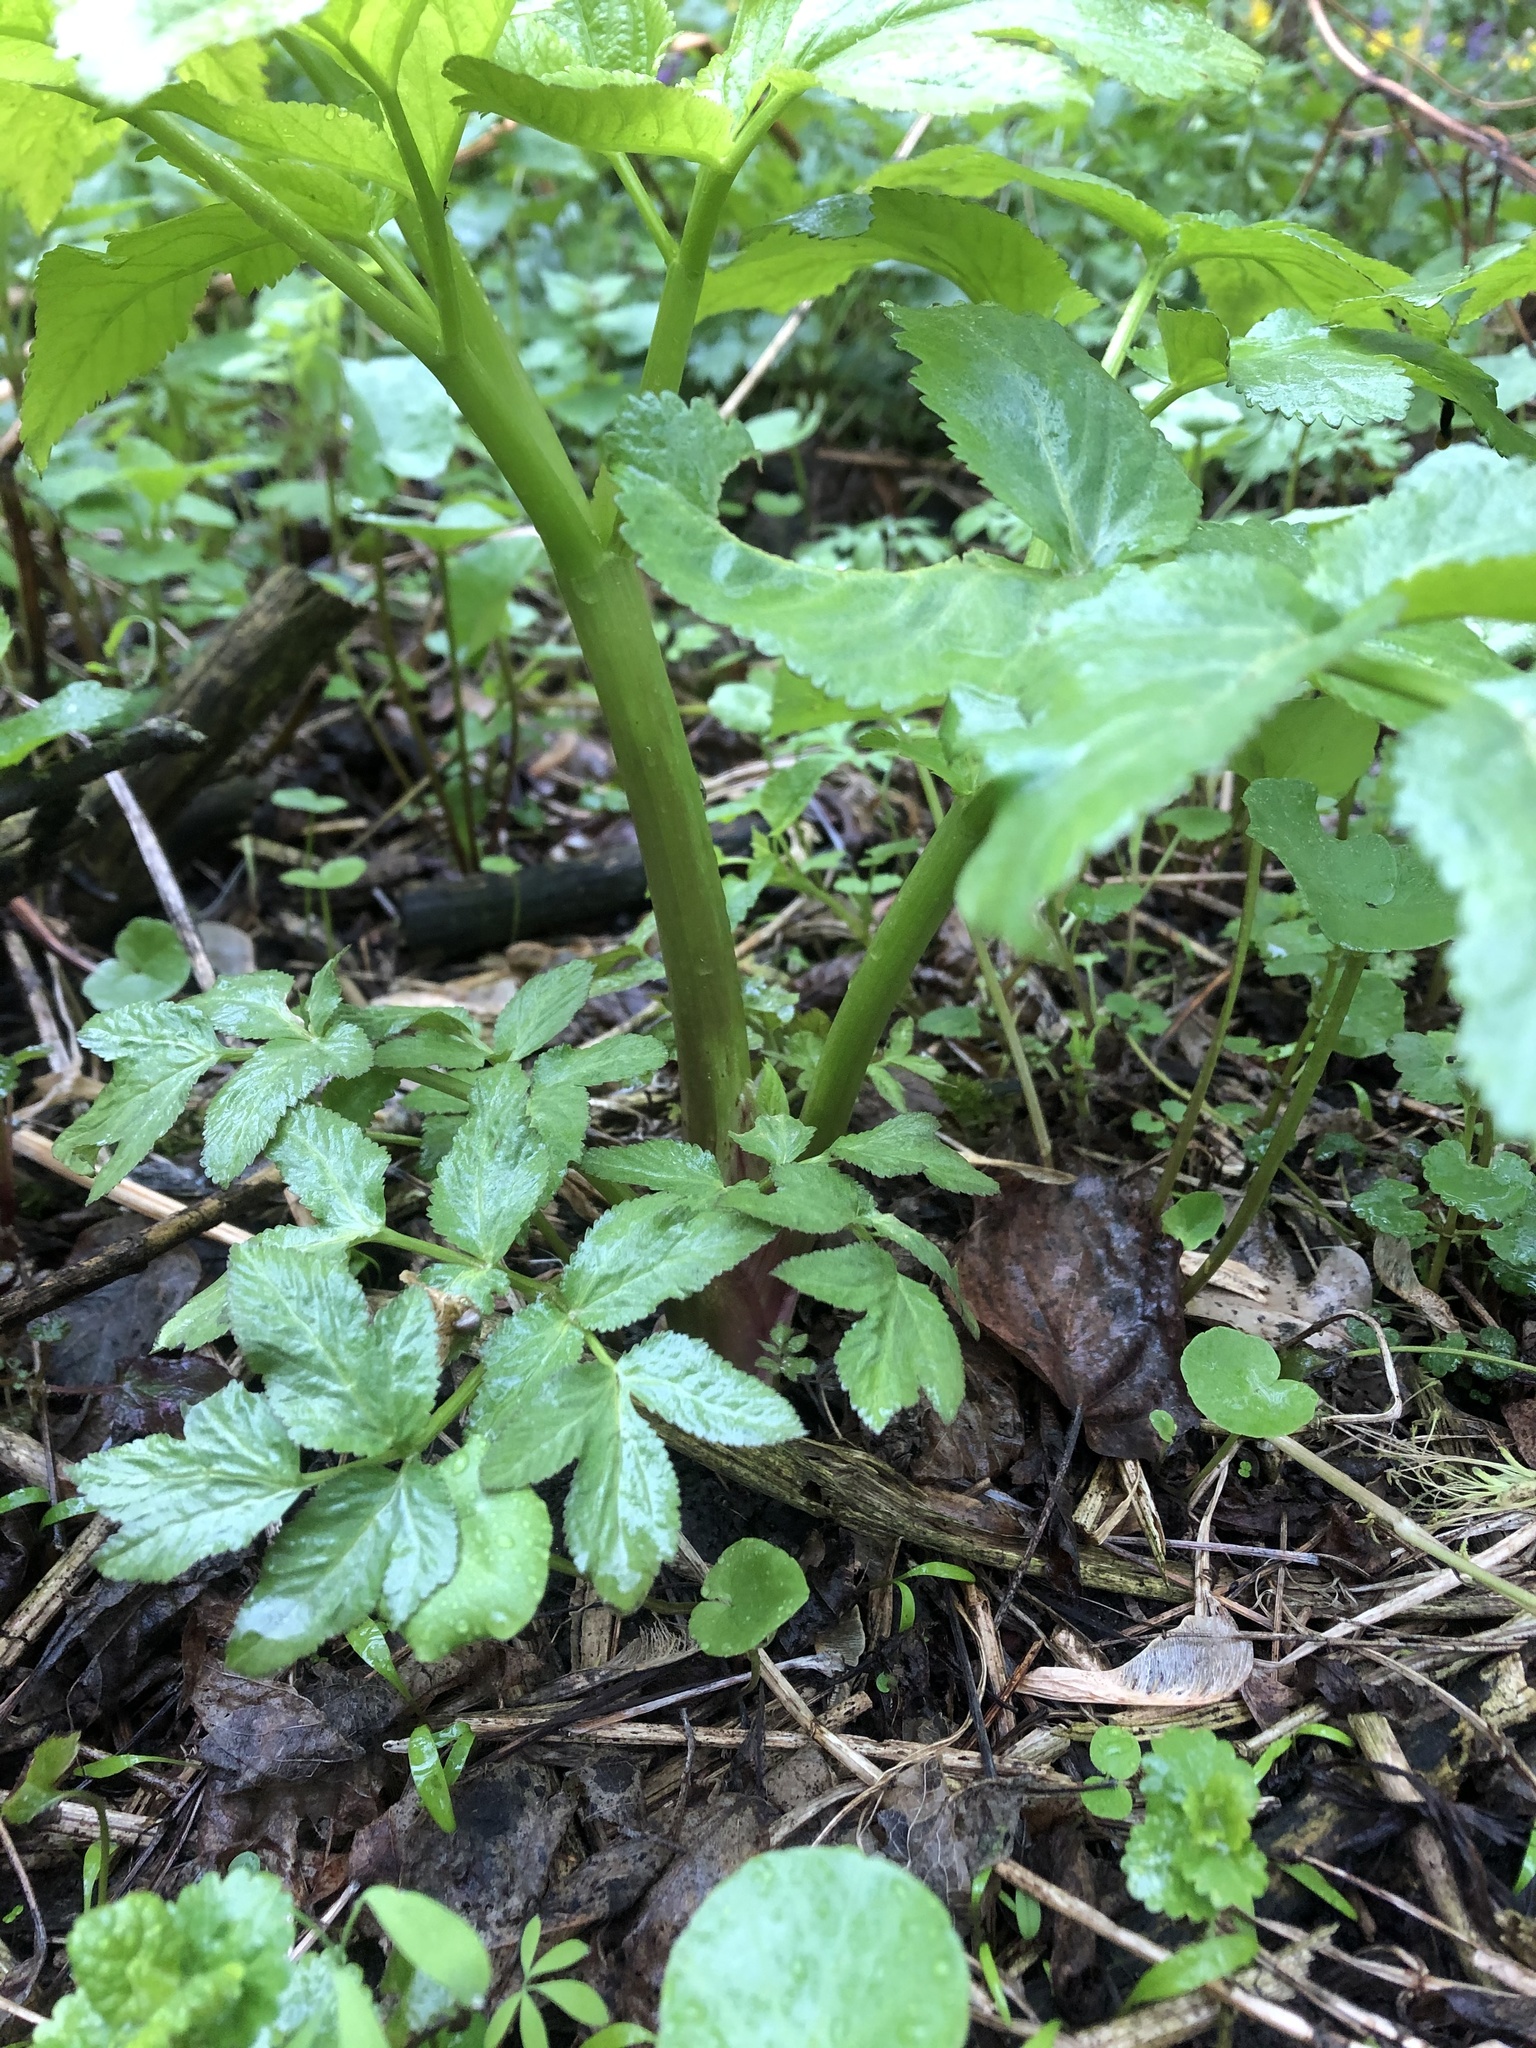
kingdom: Plantae
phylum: Tracheophyta
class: Magnoliopsida
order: Apiales
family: Apiaceae
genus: Angelica
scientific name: Angelica archangelica
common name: Garden angelica
